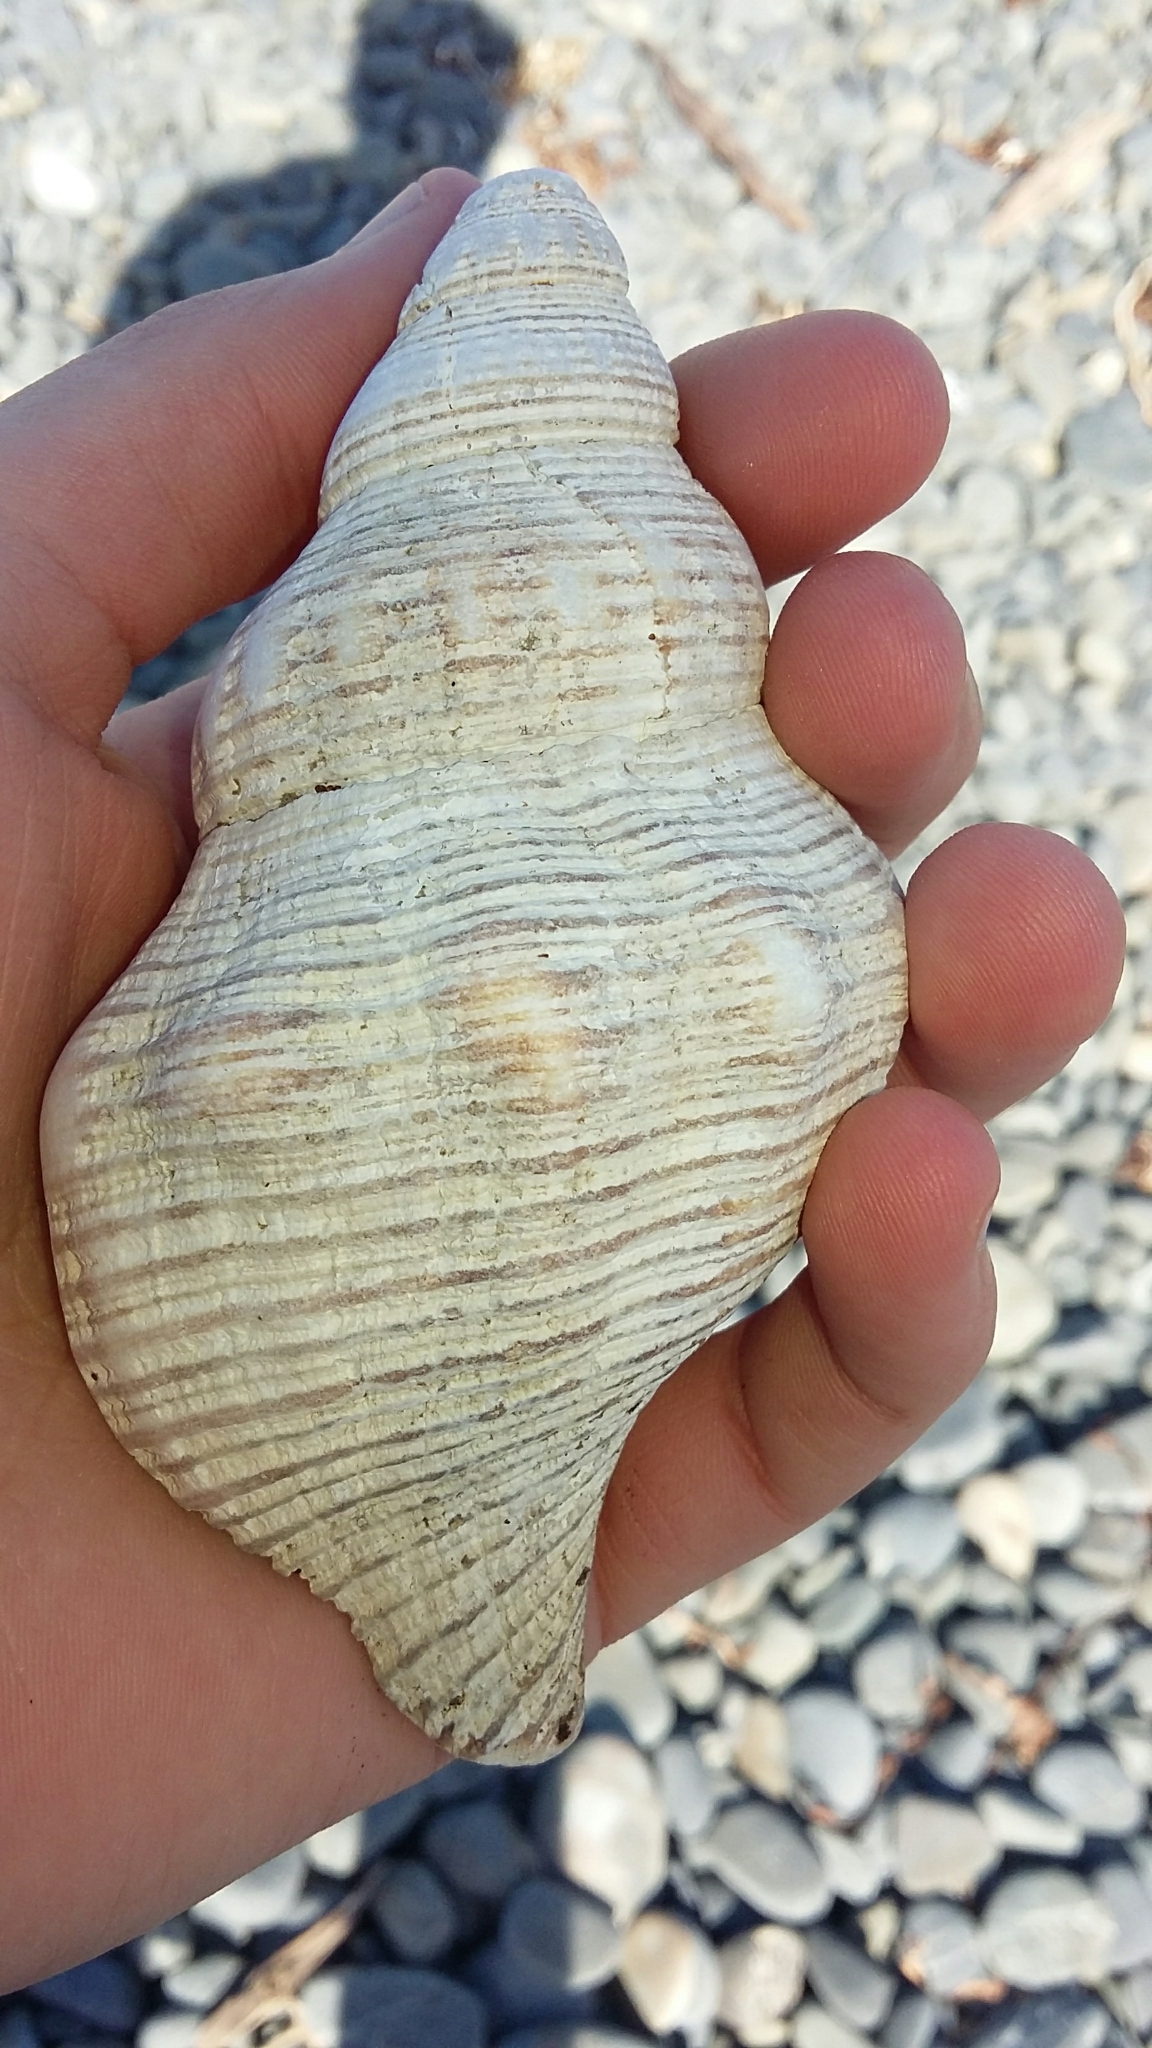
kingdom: Animalia
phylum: Mollusca
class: Gastropoda
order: Neogastropoda
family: Austrosiphonidae
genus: Penion
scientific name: Penion sulcatus
